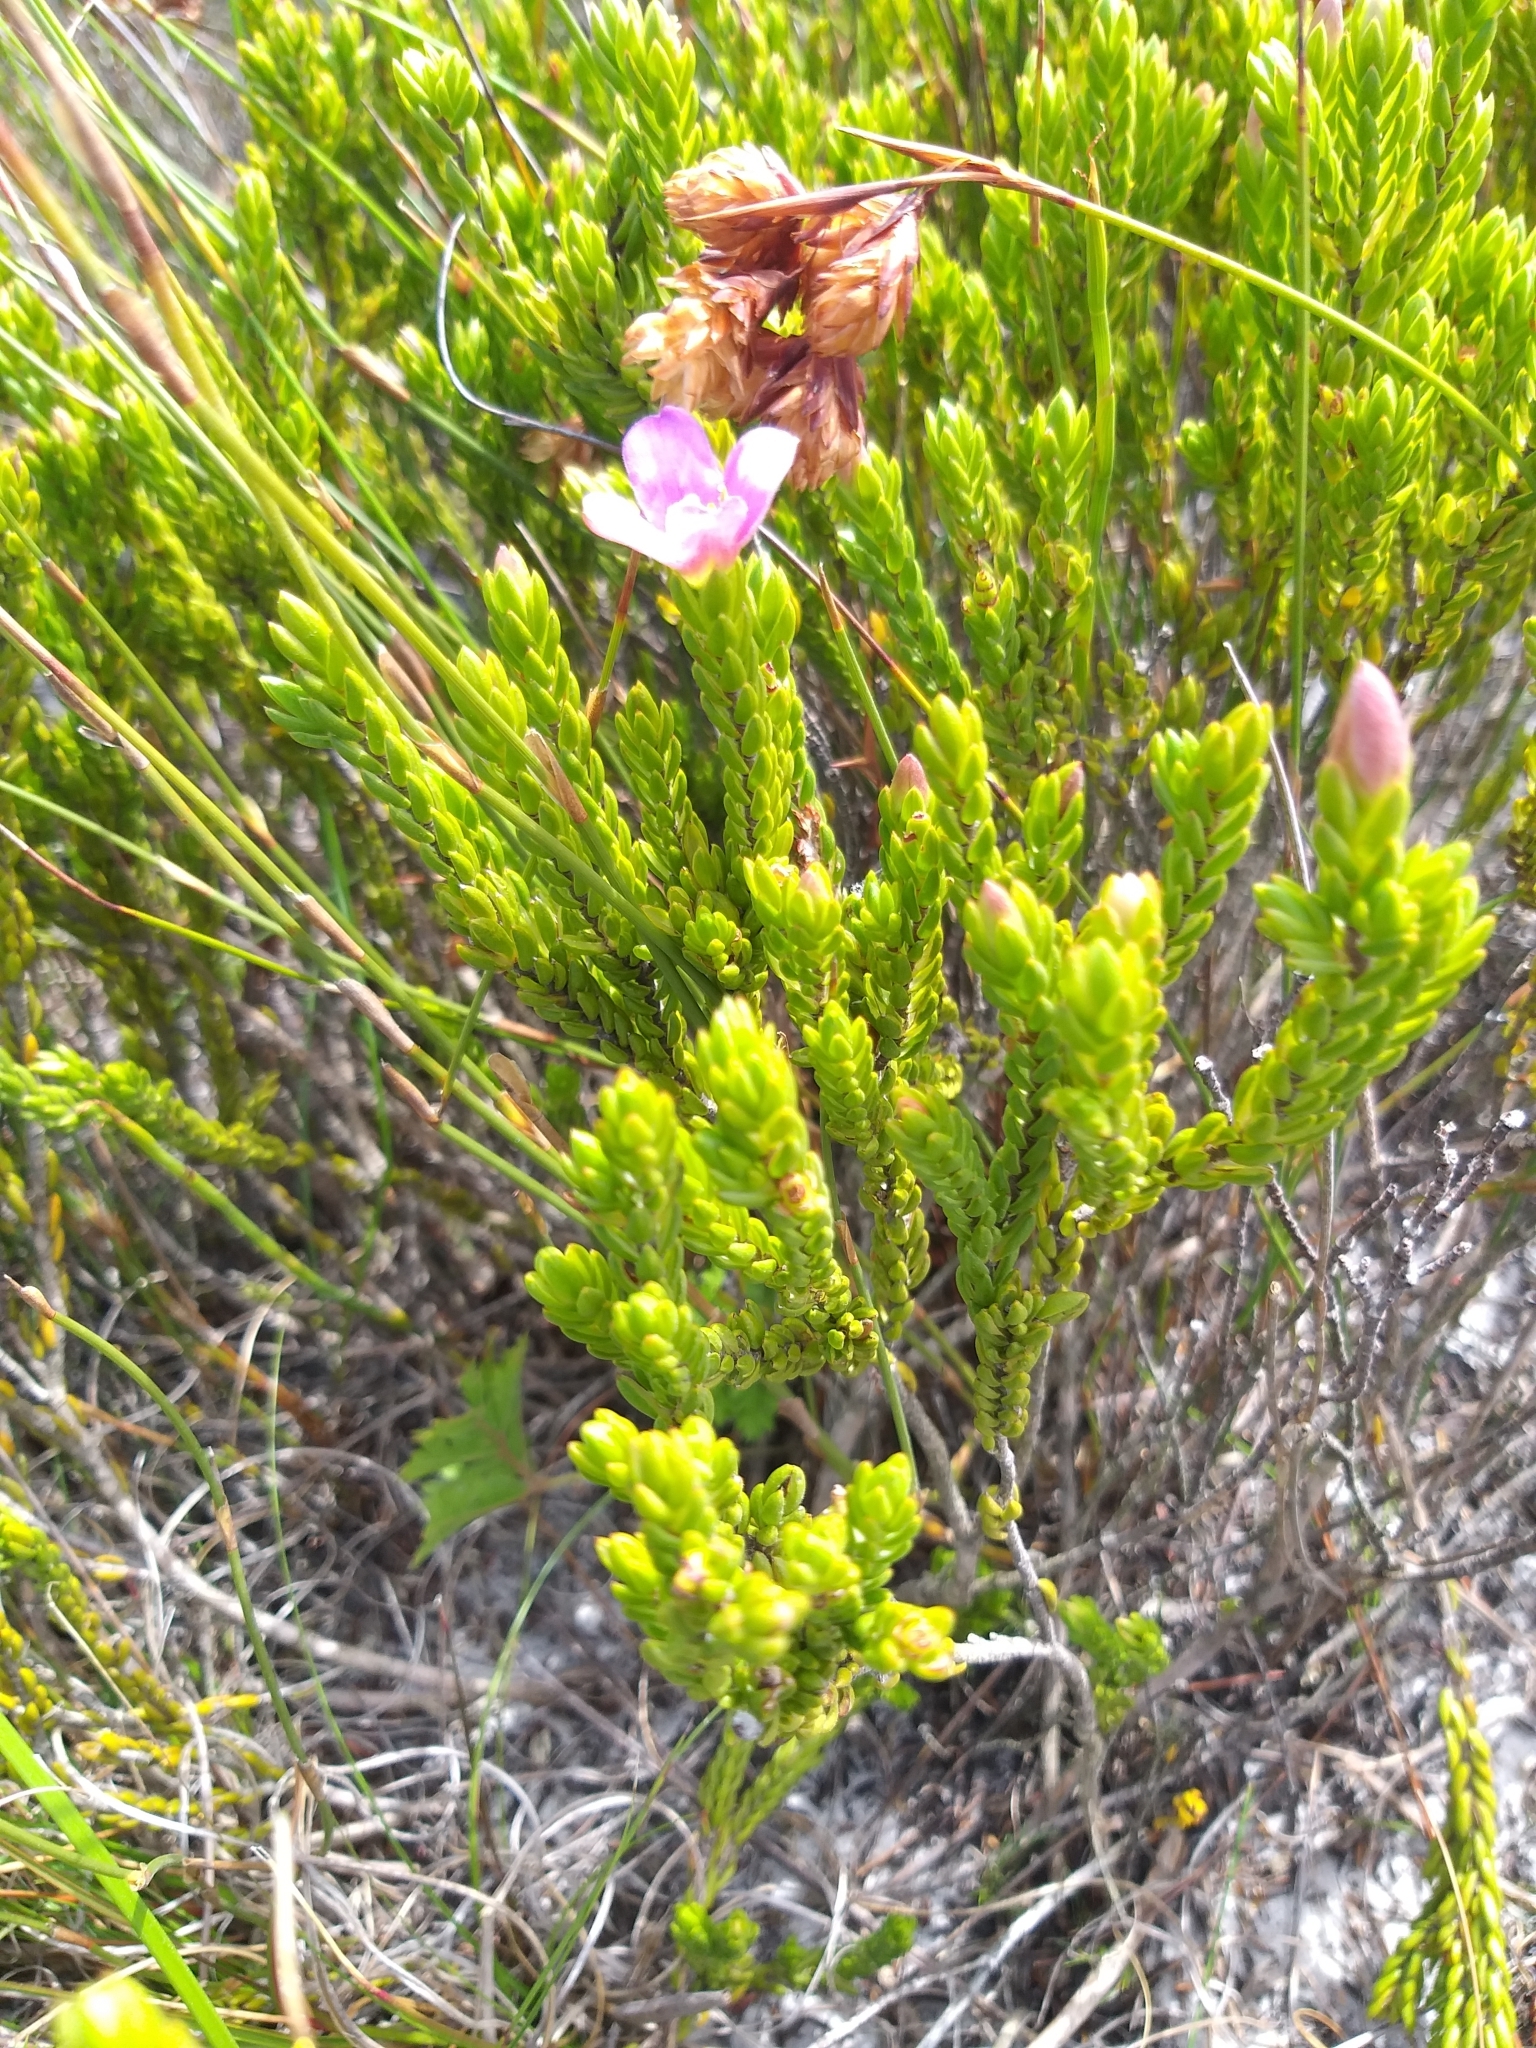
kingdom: Plantae
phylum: Tracheophyta
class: Magnoliopsida
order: Malvales
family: Thymelaeaceae
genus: Lachnaea
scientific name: Lachnaea grandiflora
